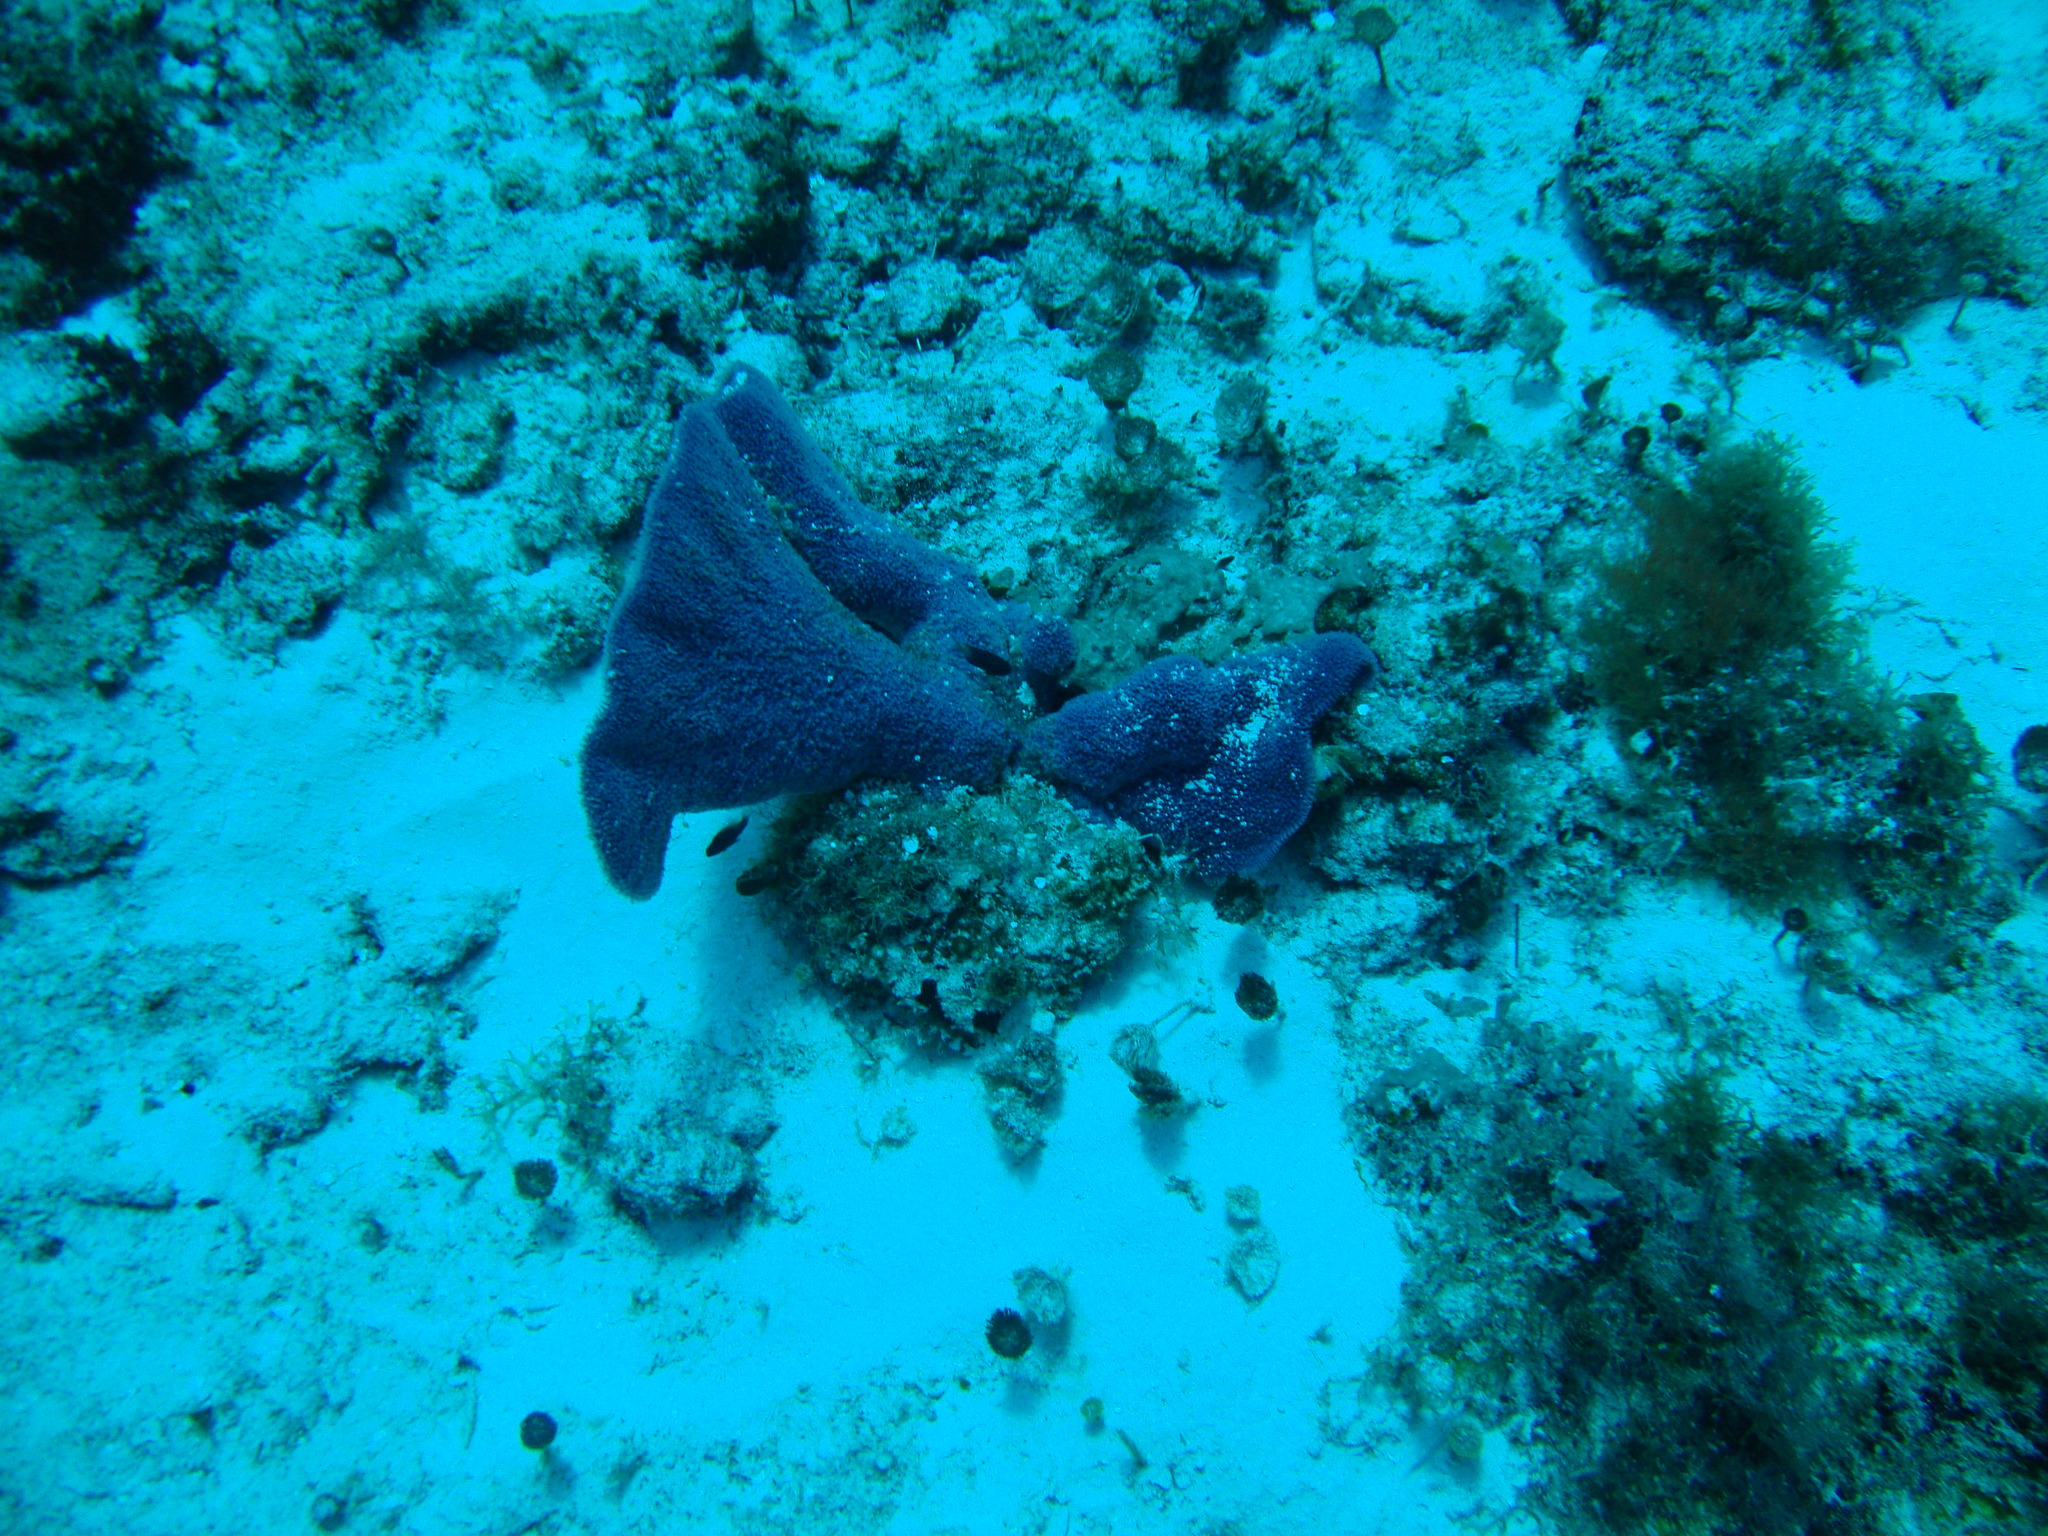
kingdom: Animalia
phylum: Porifera
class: Demospongiae
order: Haplosclerida
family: Niphatidae
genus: Niphates
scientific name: Niphates digitalis
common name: Pink vase sponge
